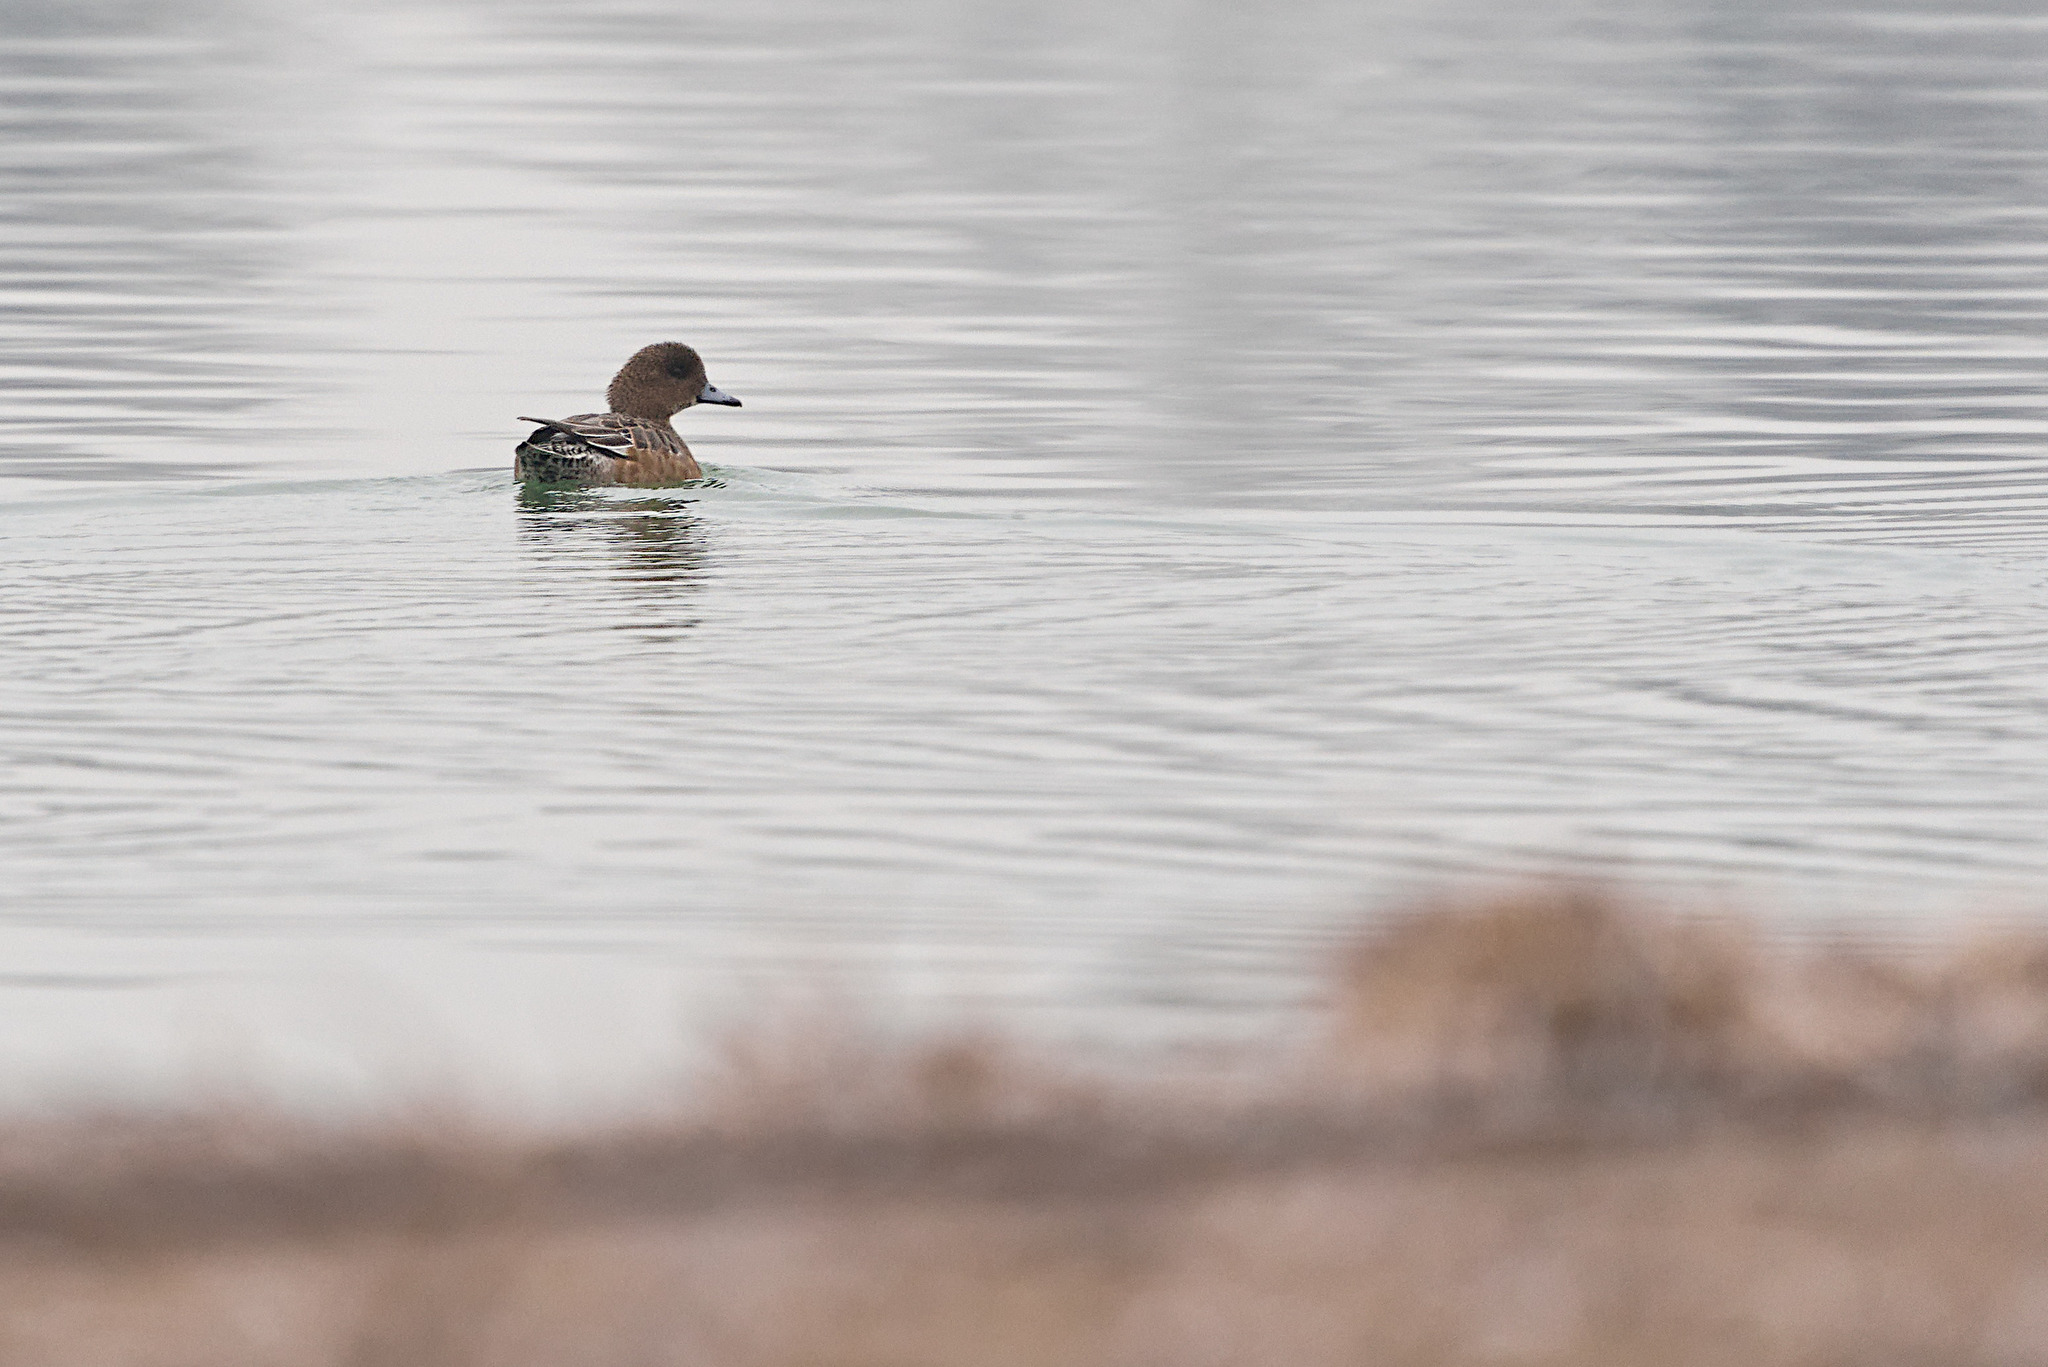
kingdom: Animalia
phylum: Chordata
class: Aves
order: Anseriformes
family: Anatidae
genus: Mareca
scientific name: Mareca penelope
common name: Eurasian wigeon
